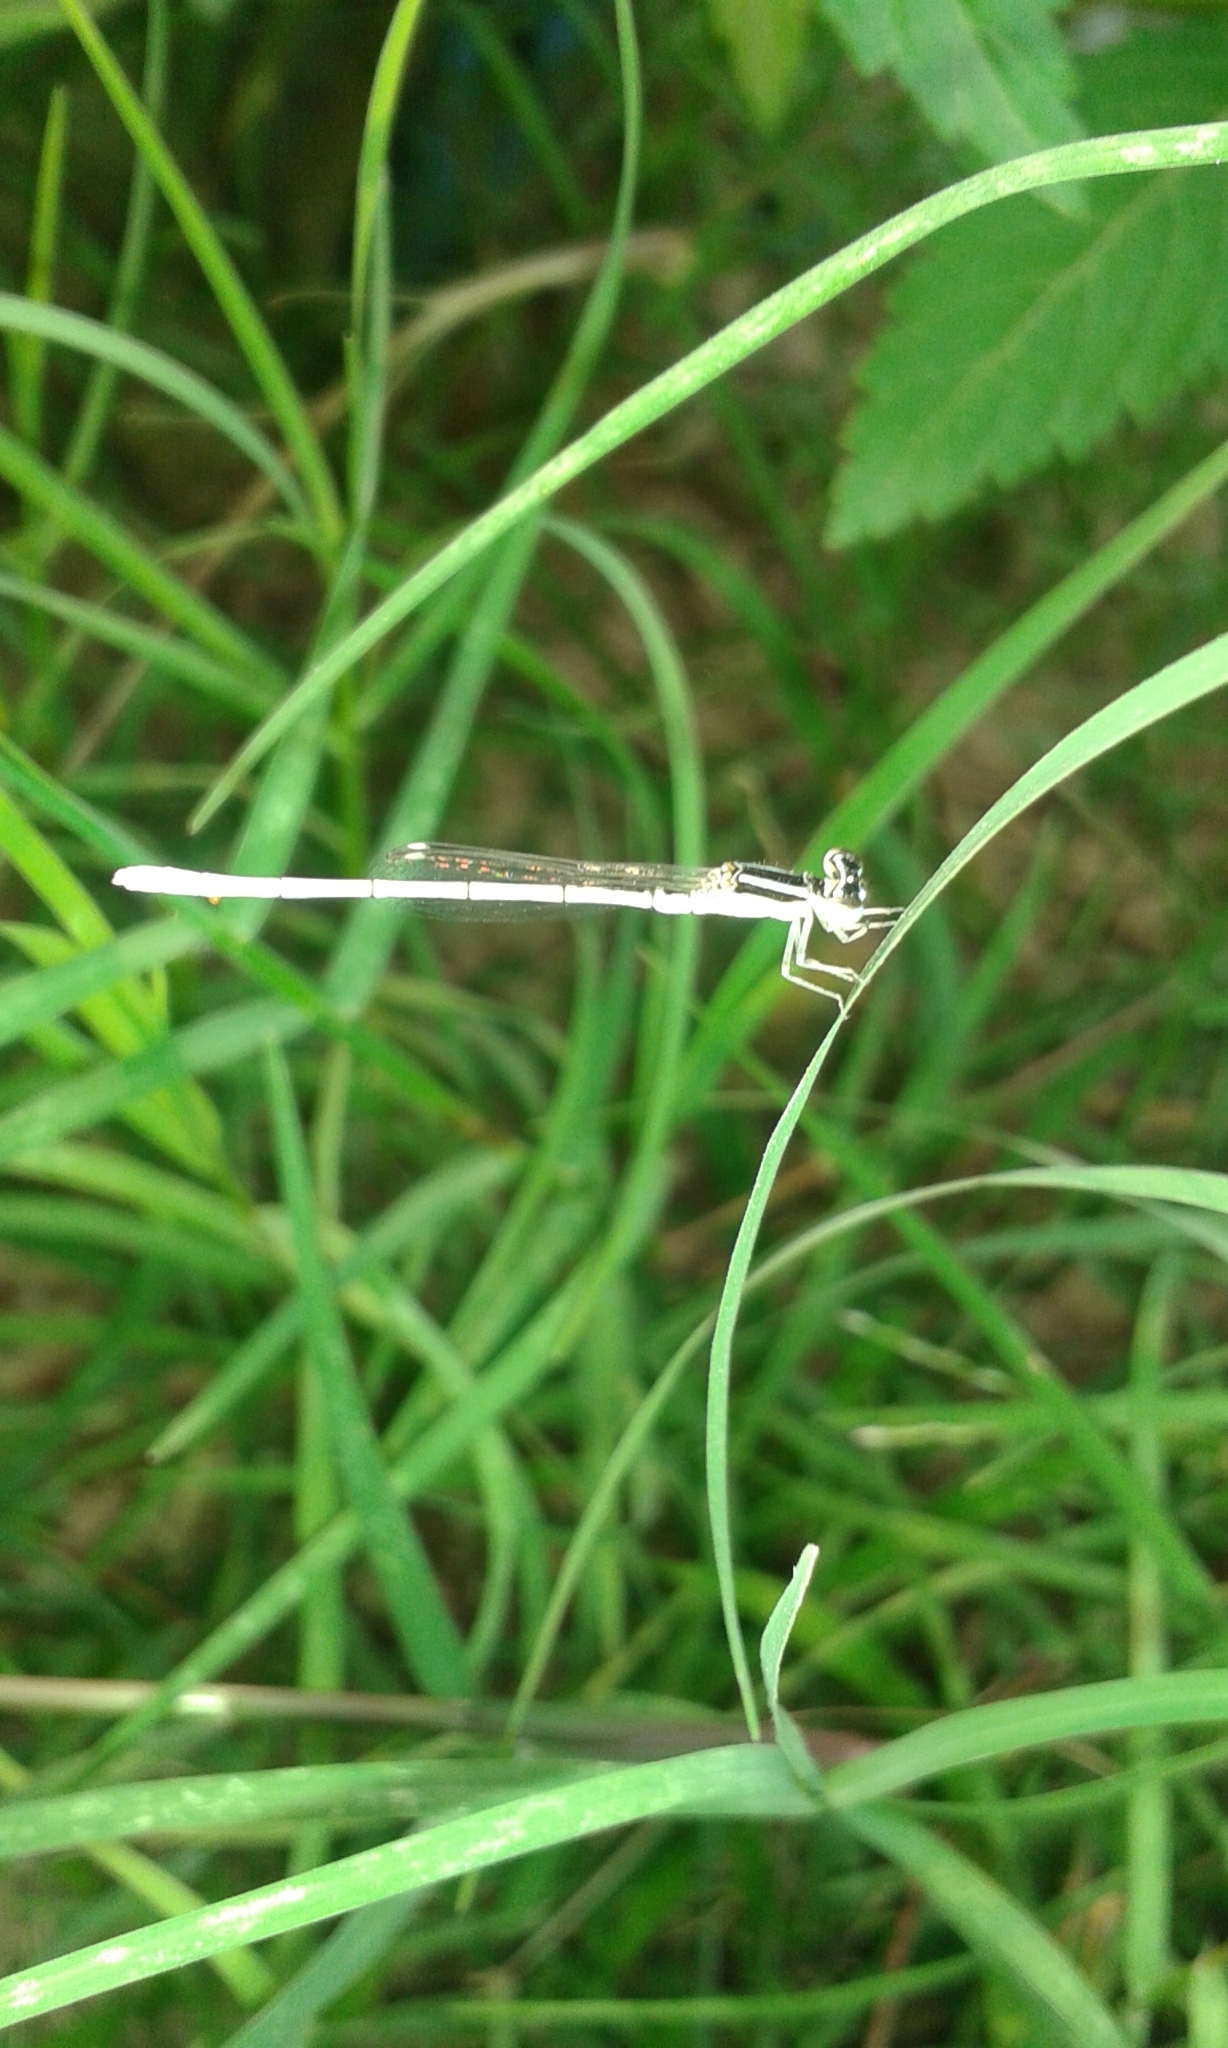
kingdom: Animalia
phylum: Arthropoda
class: Insecta
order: Odonata
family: Coenagrionidae
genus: Agriocnemis
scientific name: Agriocnemis lacteola
